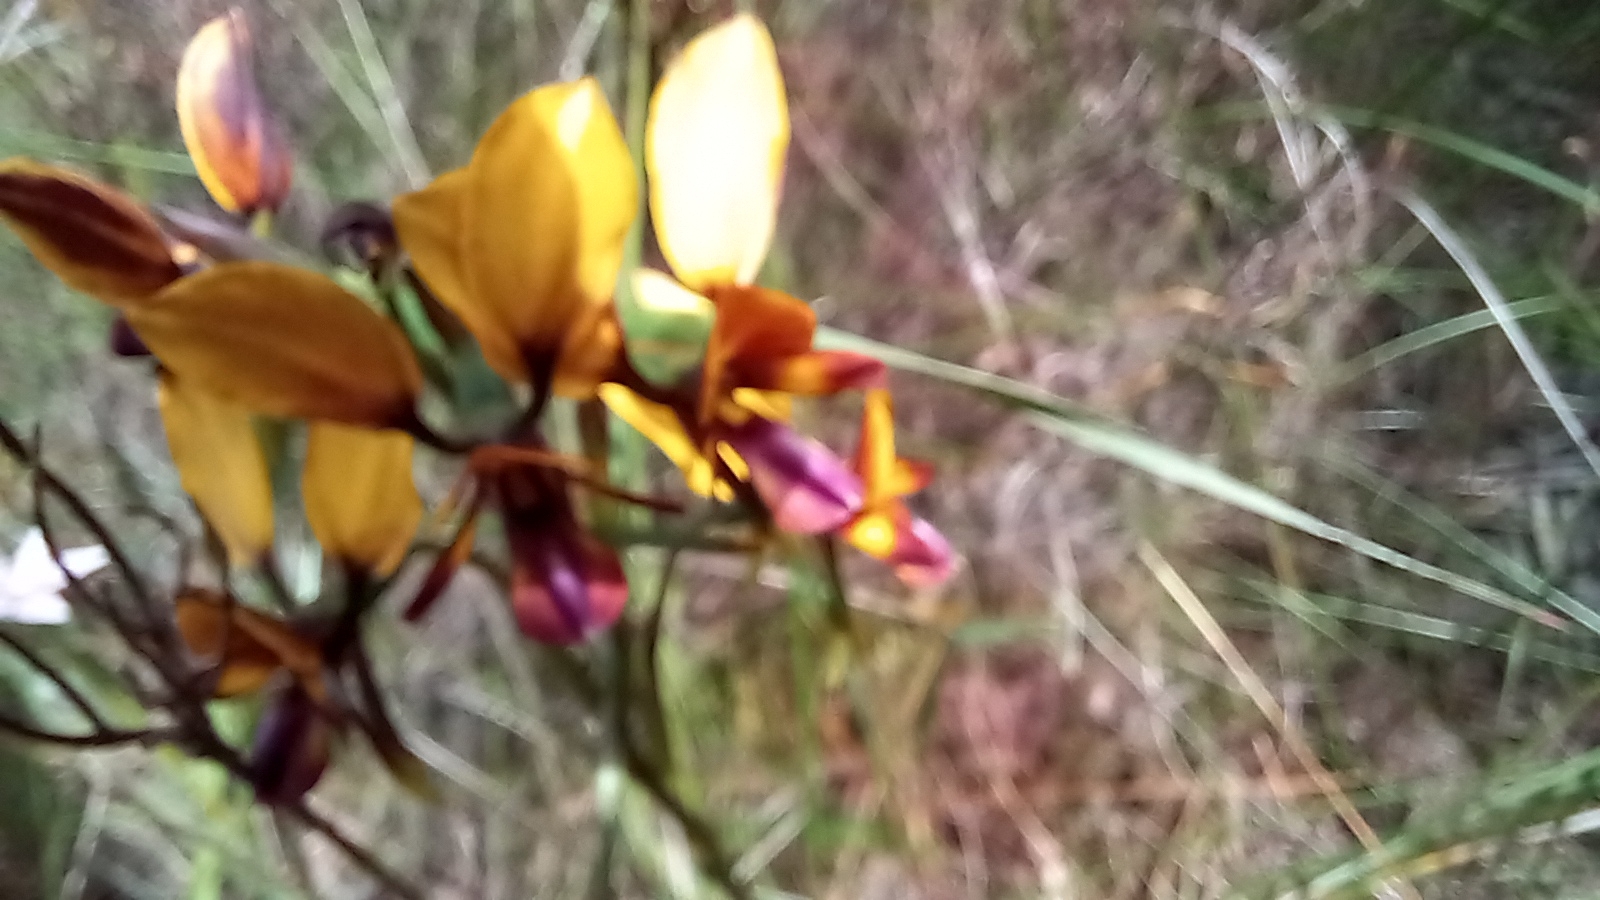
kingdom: Plantae
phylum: Tracheophyta
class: Liliopsida
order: Asparagales
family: Orchidaceae
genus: Diuris
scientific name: Diuris magnifica
